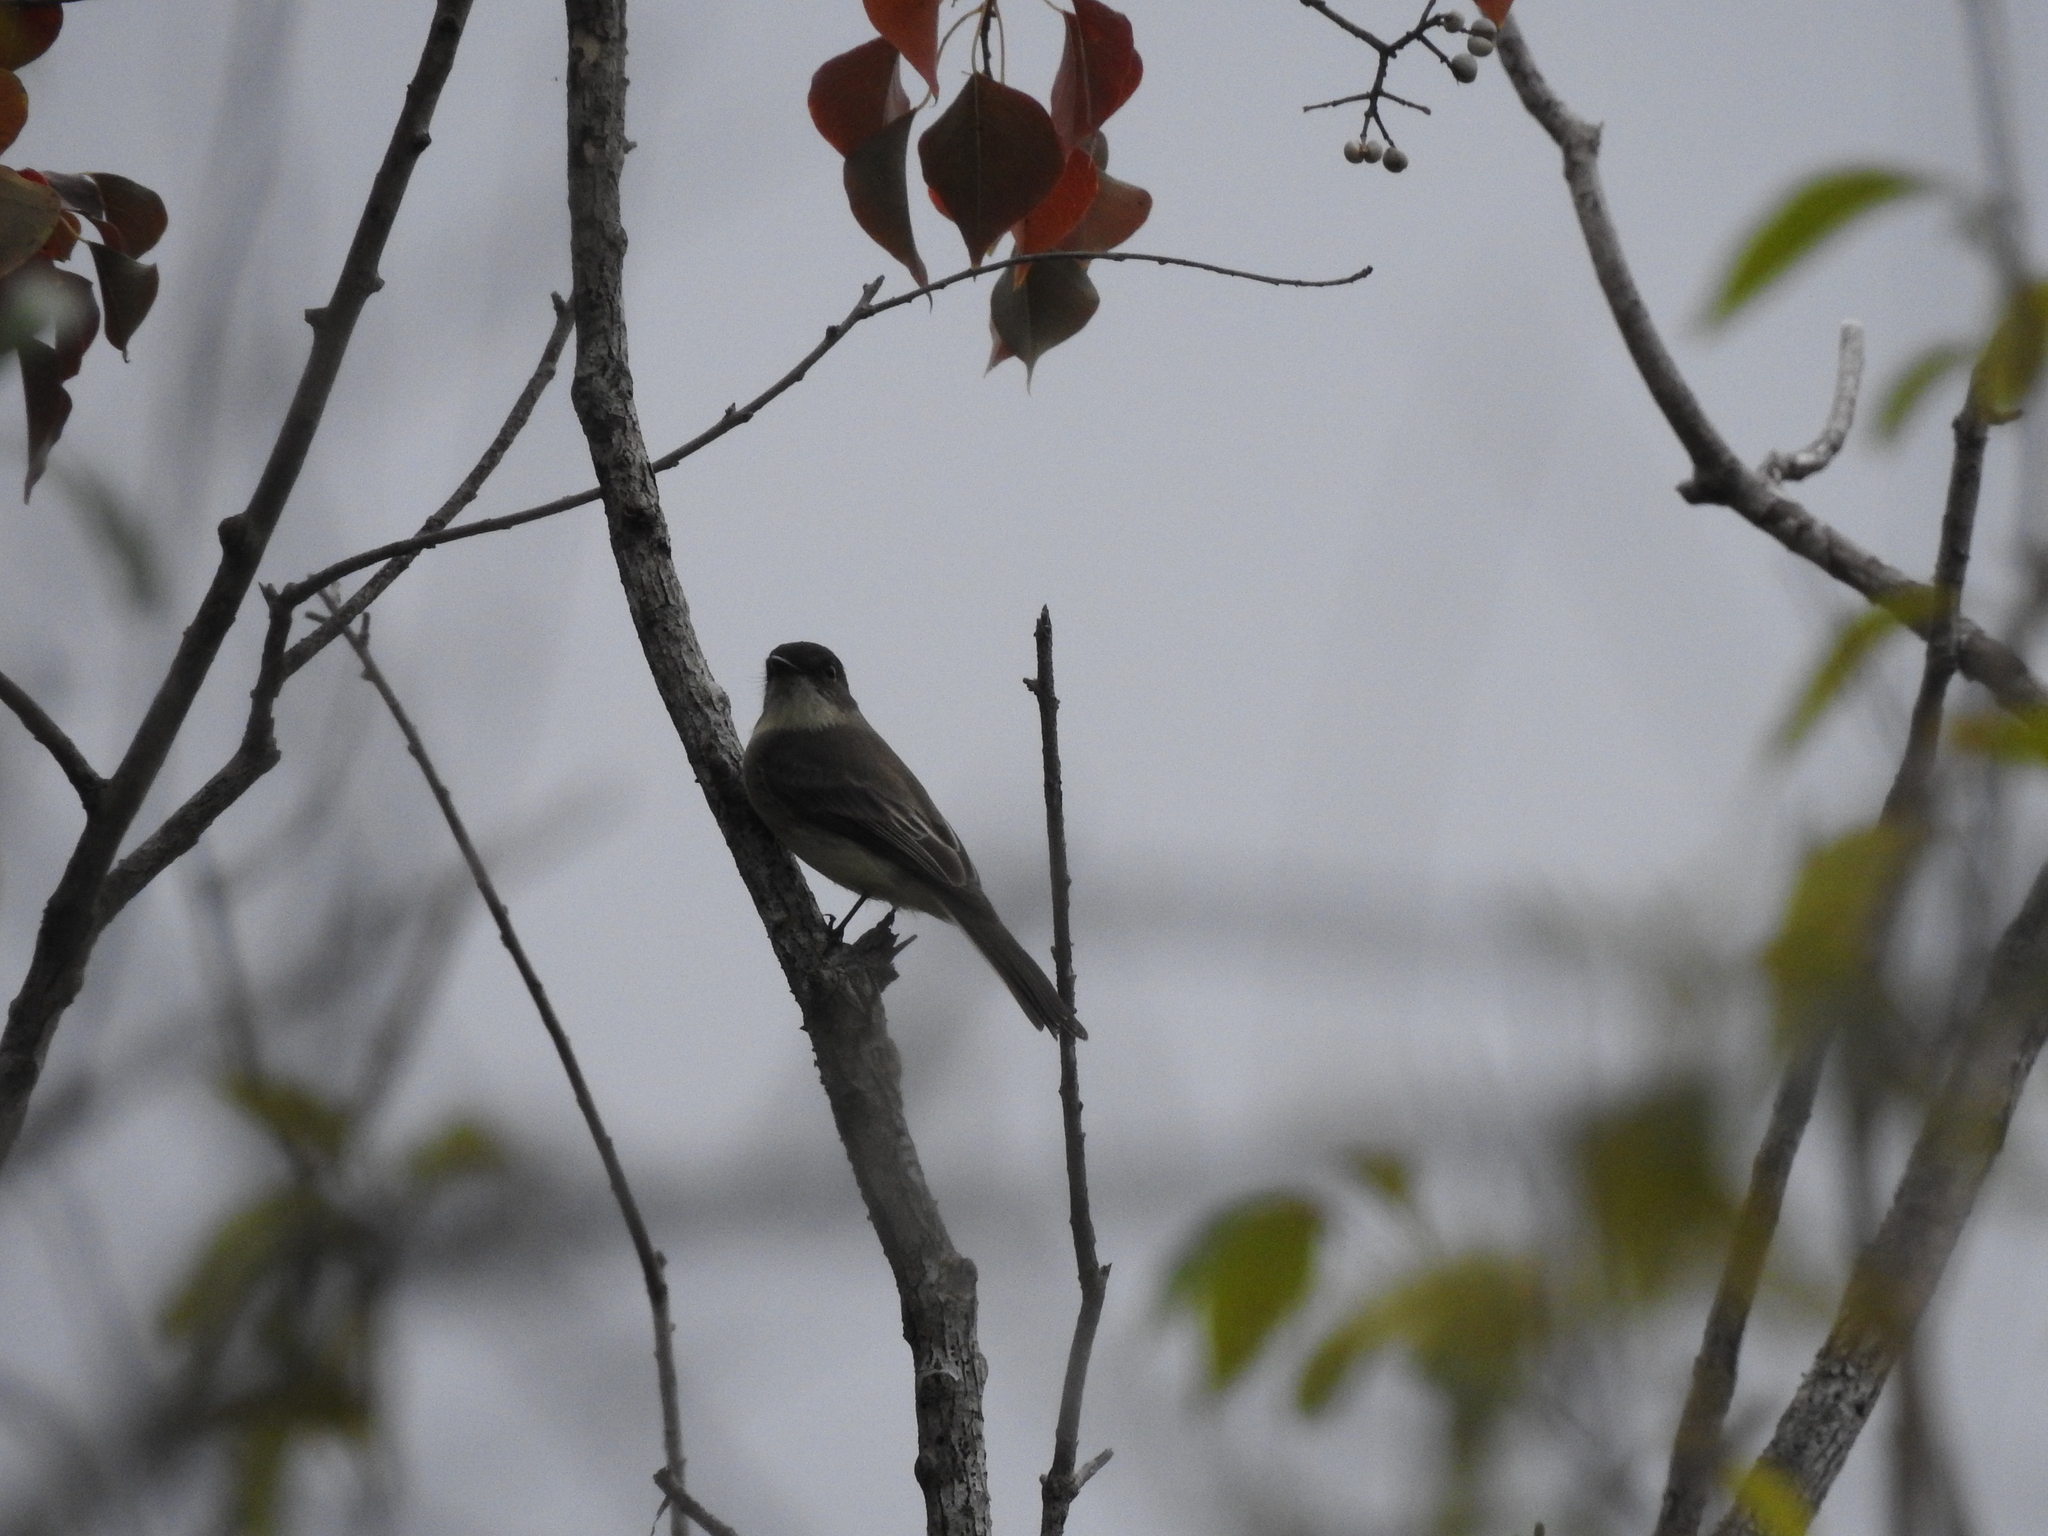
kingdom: Animalia
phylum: Chordata
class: Aves
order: Passeriformes
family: Tyrannidae
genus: Sayornis
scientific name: Sayornis phoebe
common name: Eastern phoebe
